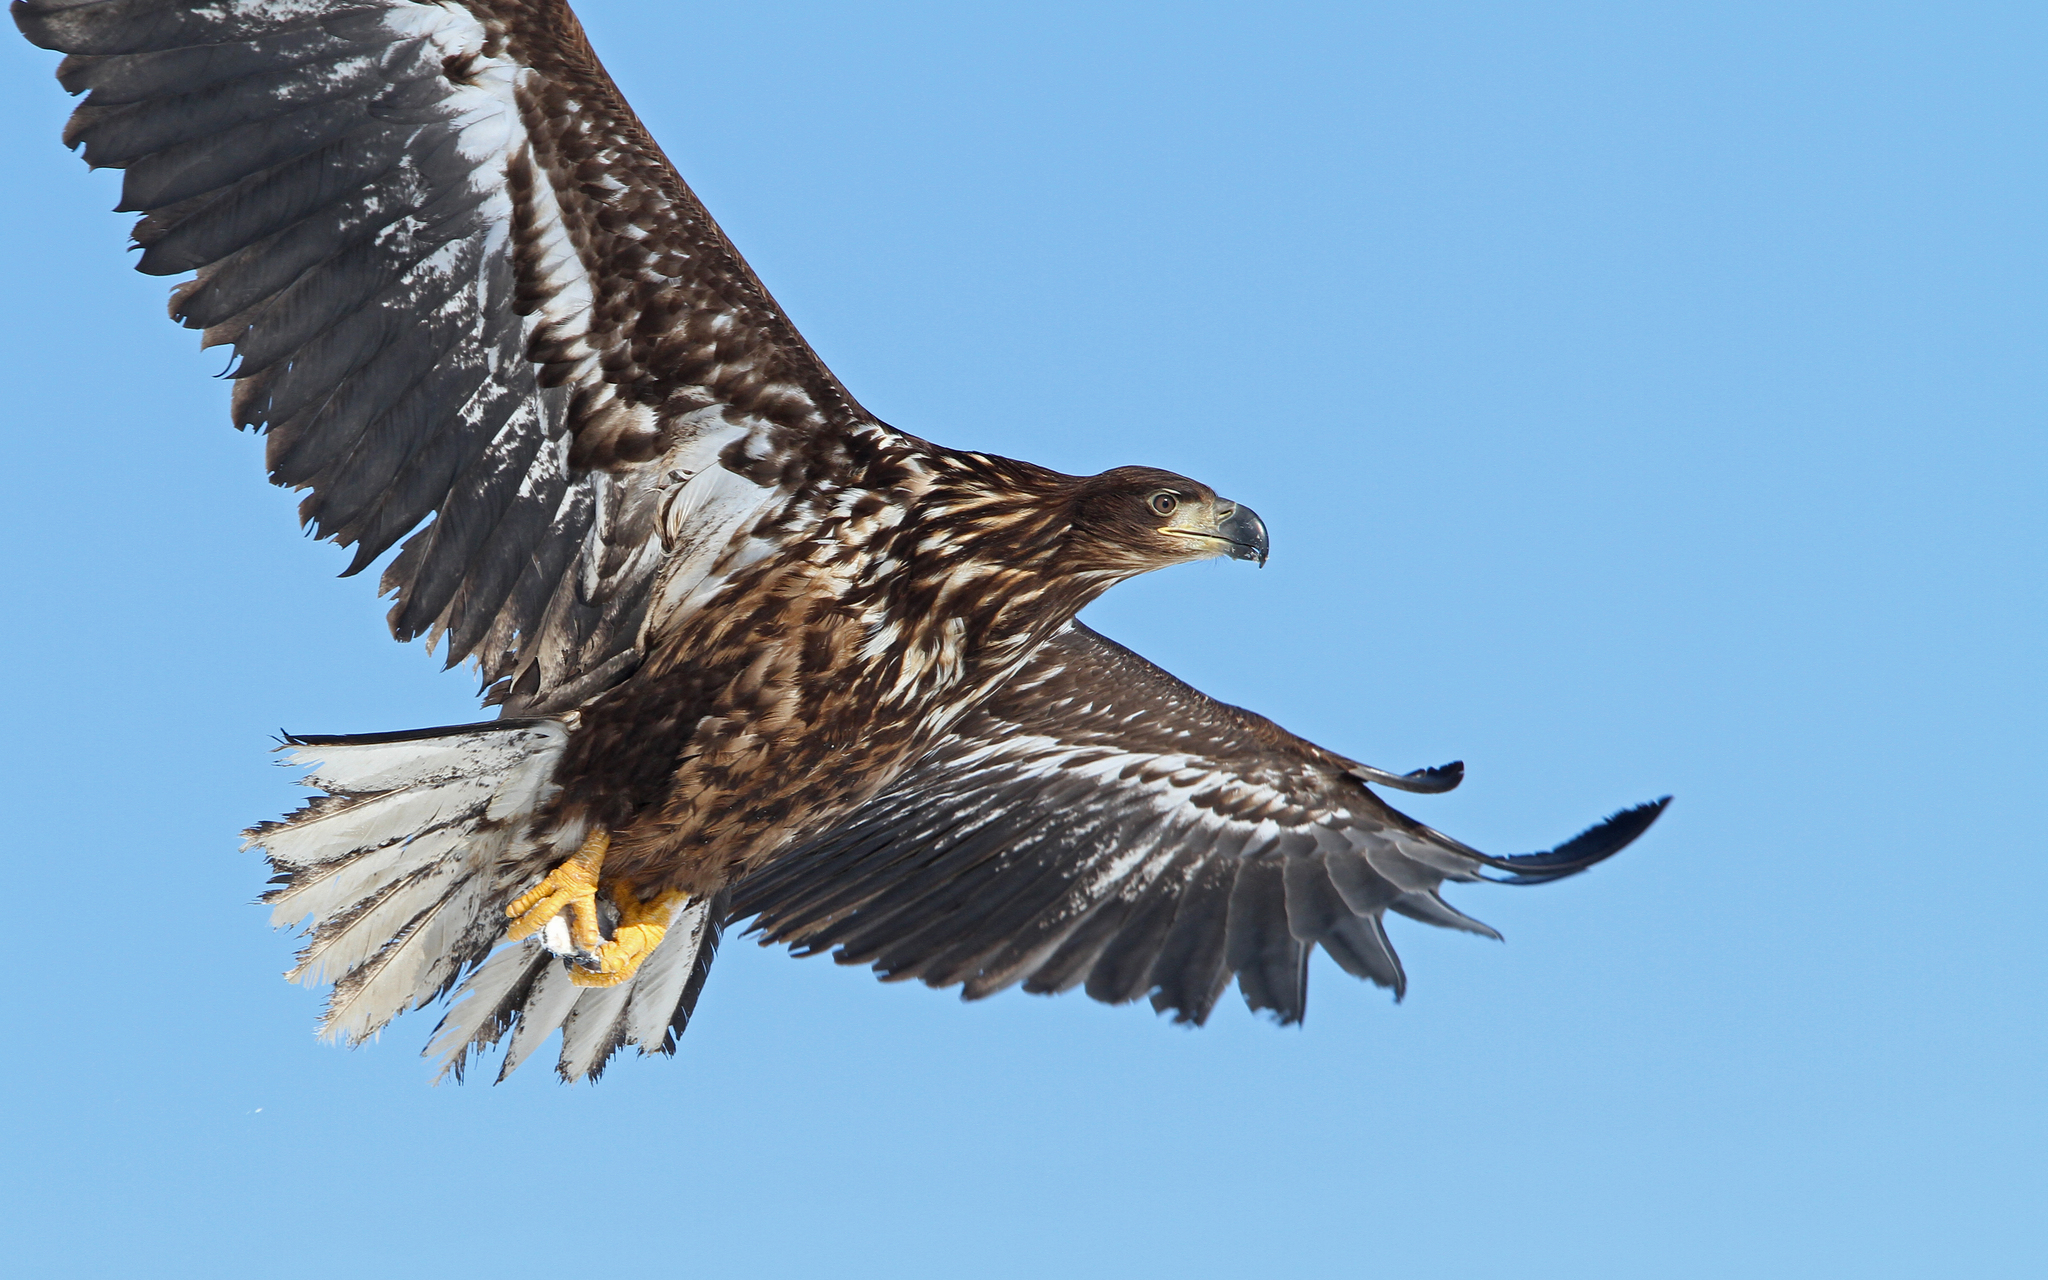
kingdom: Animalia
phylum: Chordata
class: Aves
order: Accipitriformes
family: Accipitridae
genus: Haliaeetus
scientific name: Haliaeetus albicilla
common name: White-tailed eagle
